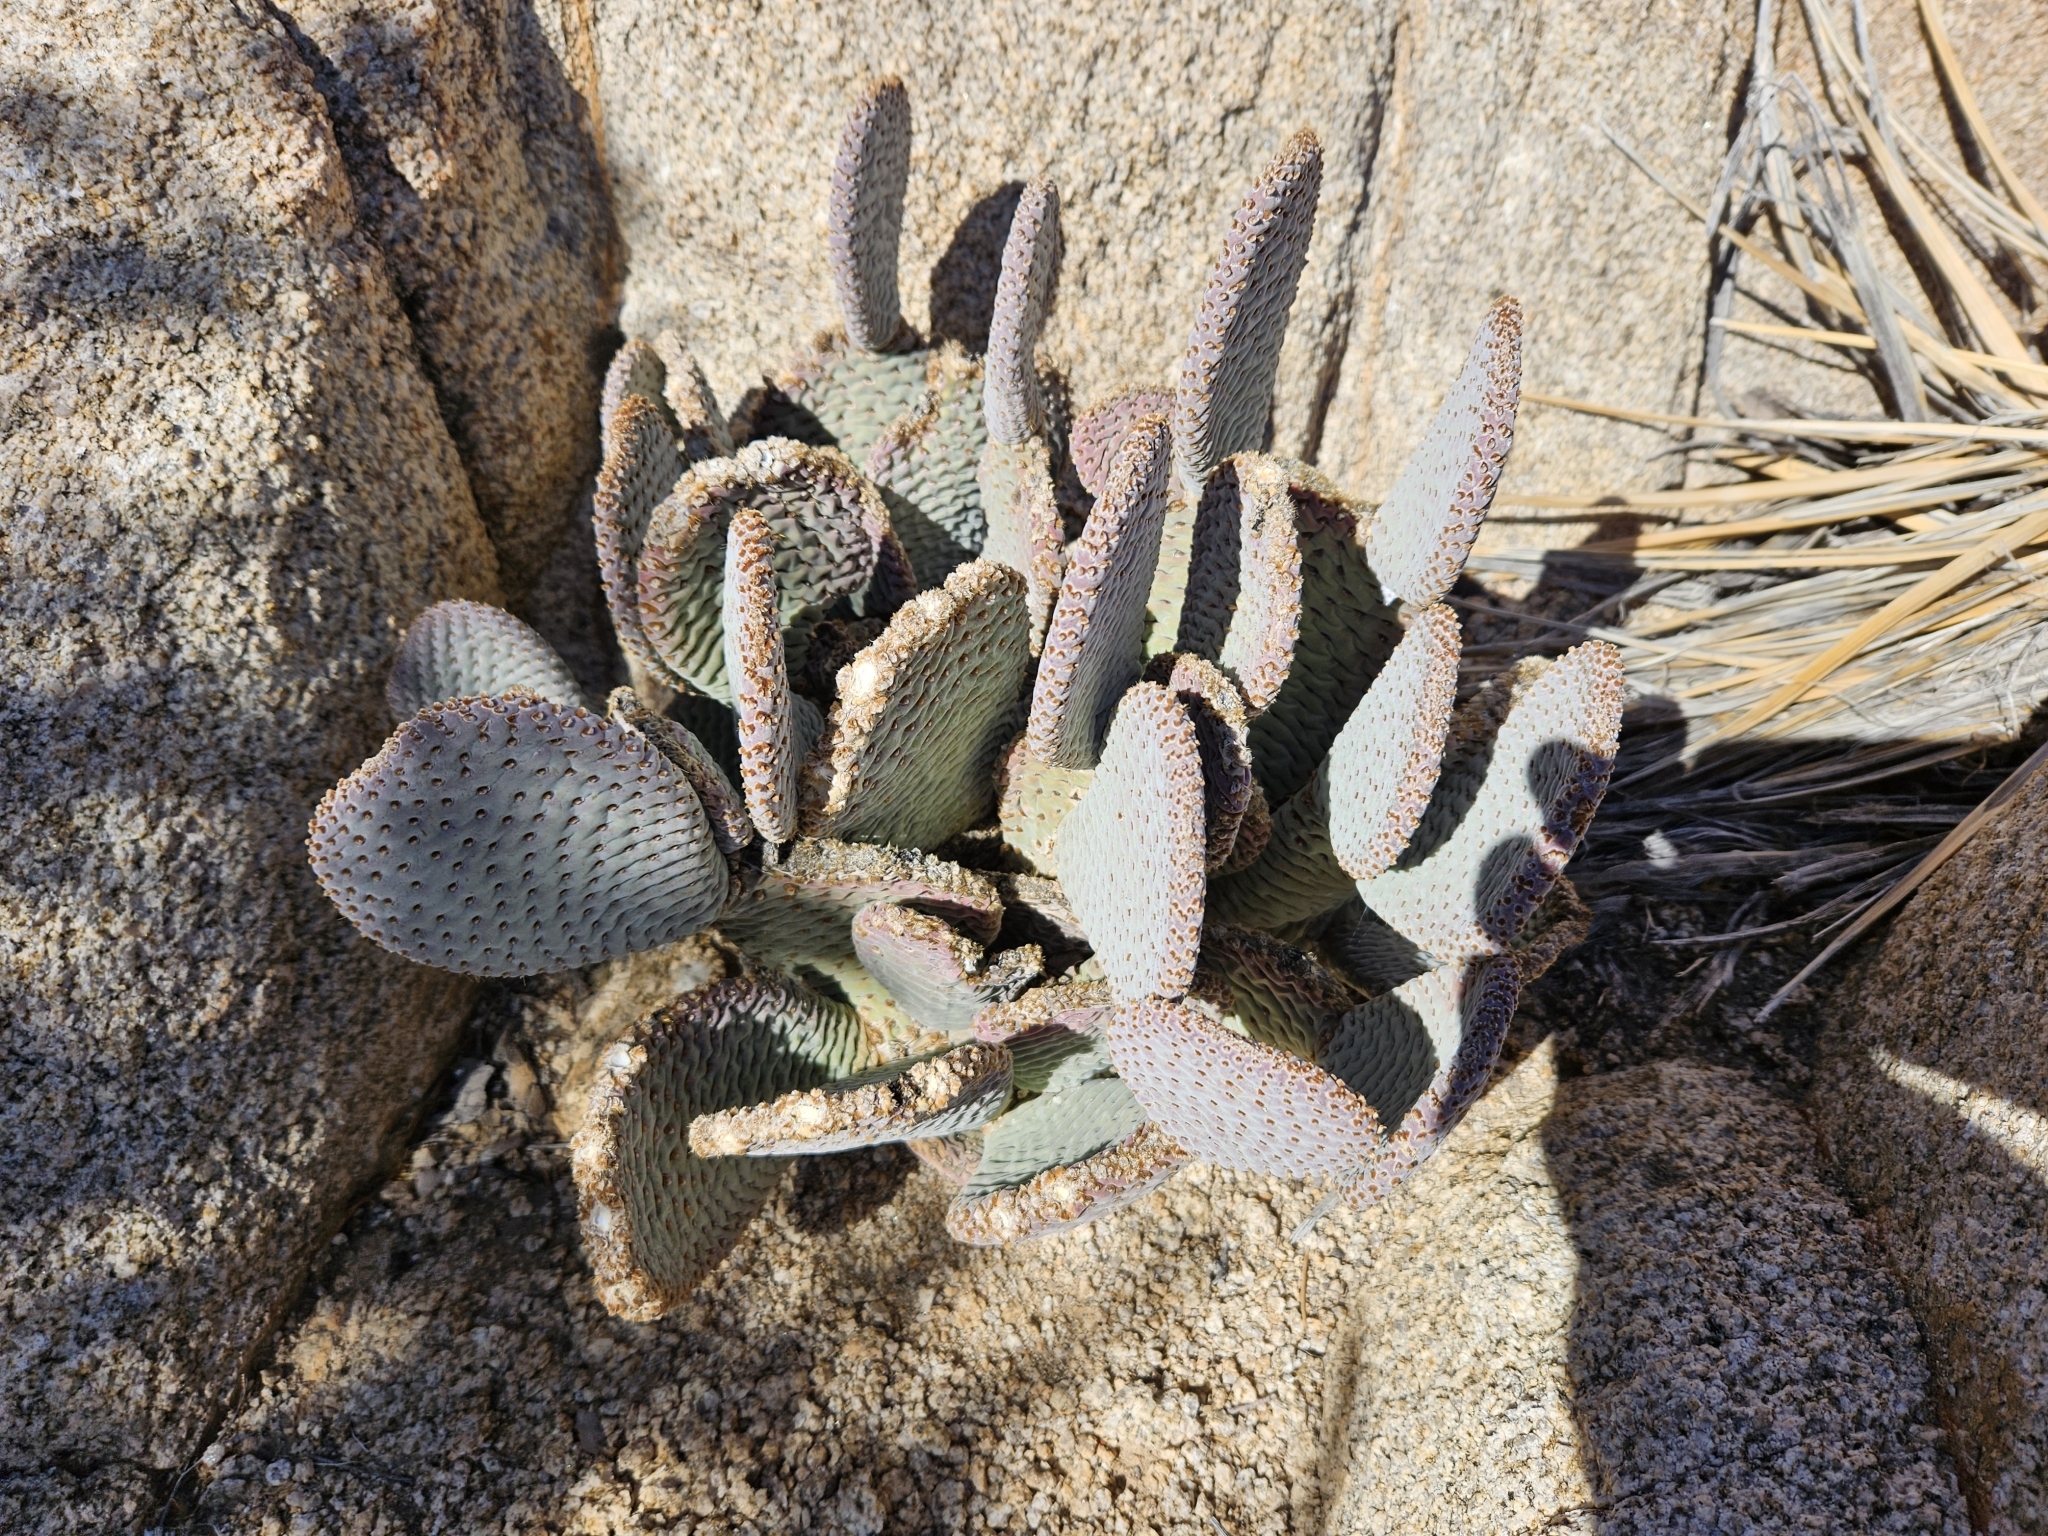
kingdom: Plantae
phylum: Tracheophyta
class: Magnoliopsida
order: Caryophyllales
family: Cactaceae
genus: Opuntia
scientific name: Opuntia basilaris
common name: Beavertail prickly-pear
